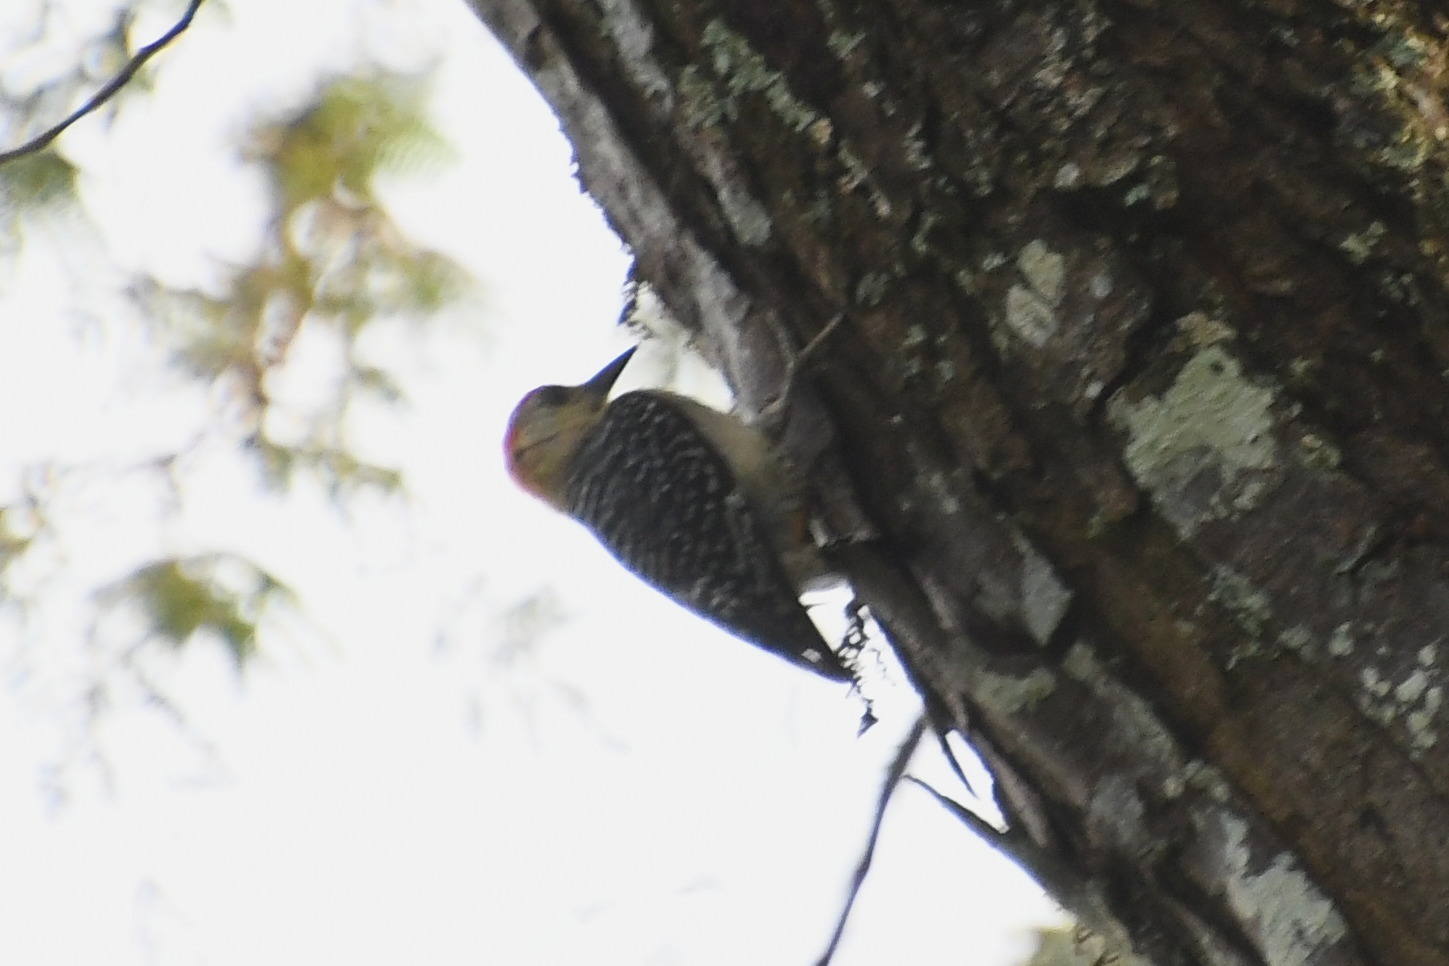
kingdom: Animalia
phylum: Chordata
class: Aves
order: Piciformes
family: Picidae
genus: Melanerpes
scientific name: Melanerpes rubricapillus
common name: Red-crowned woodpecker
